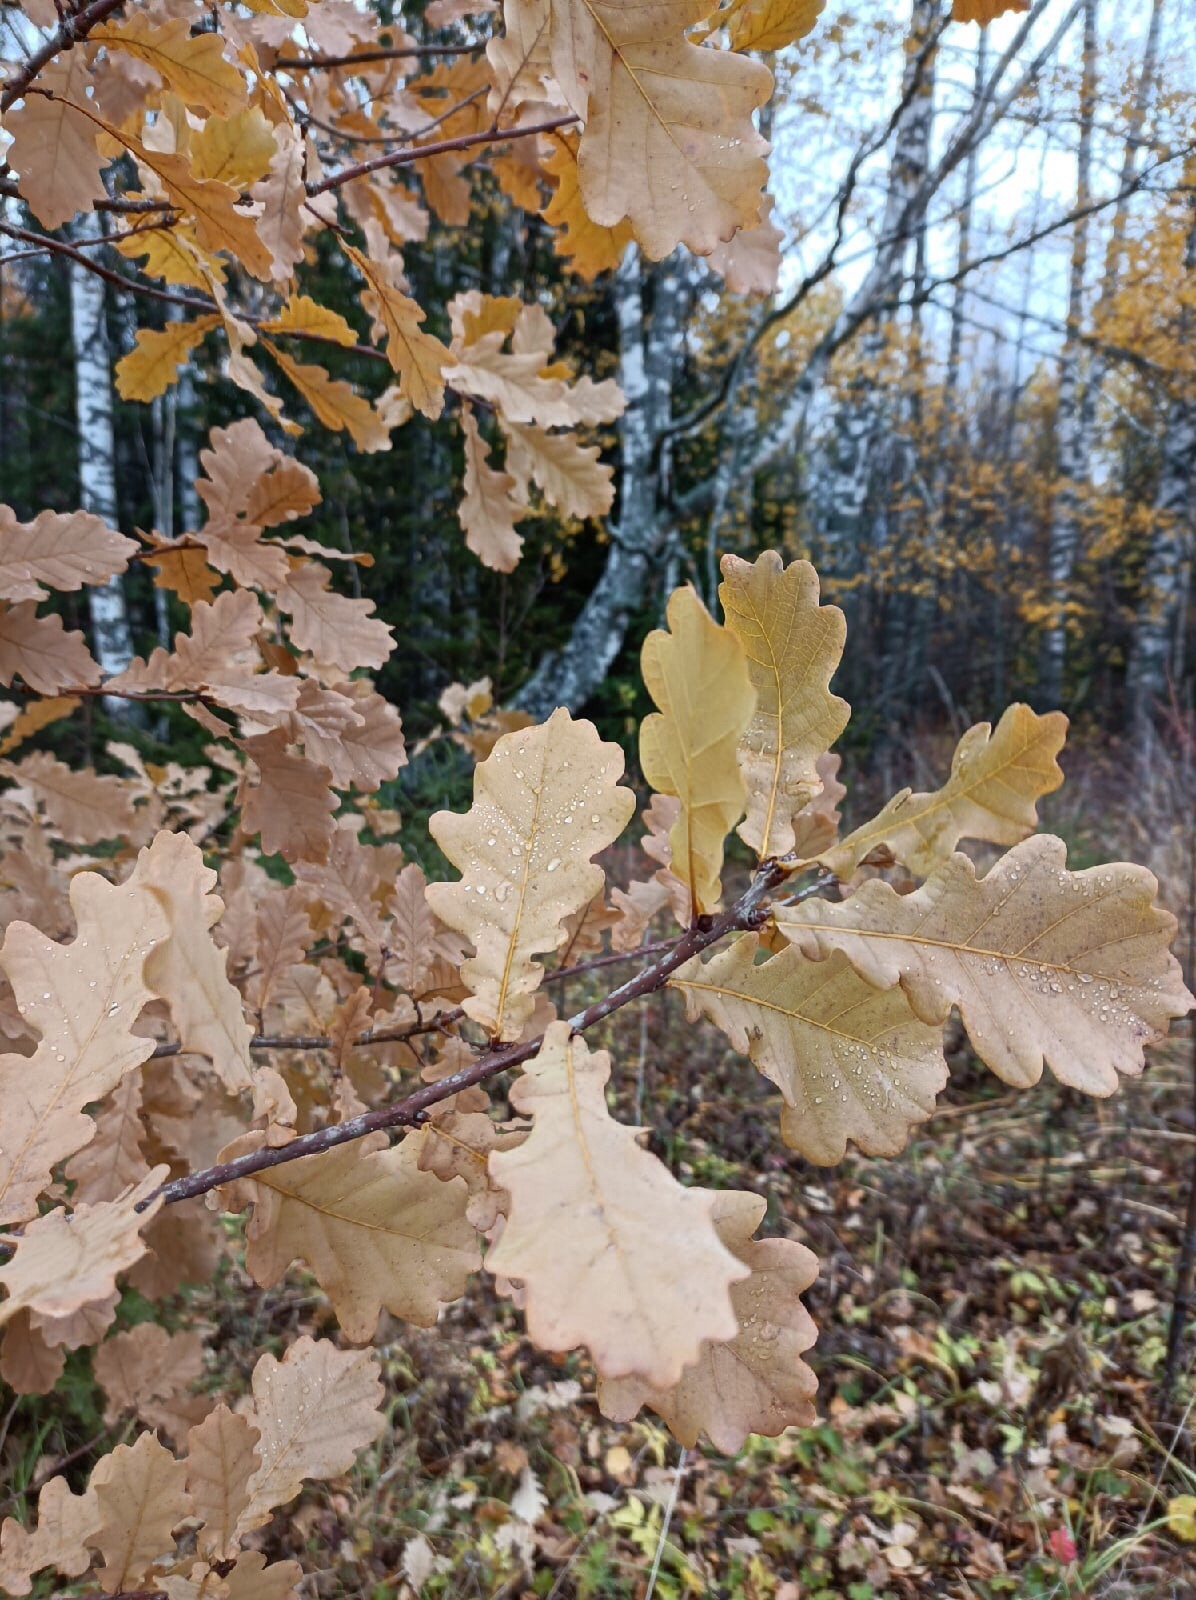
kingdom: Plantae
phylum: Tracheophyta
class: Magnoliopsida
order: Fagales
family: Fagaceae
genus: Quercus
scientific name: Quercus robur
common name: Pedunculate oak
